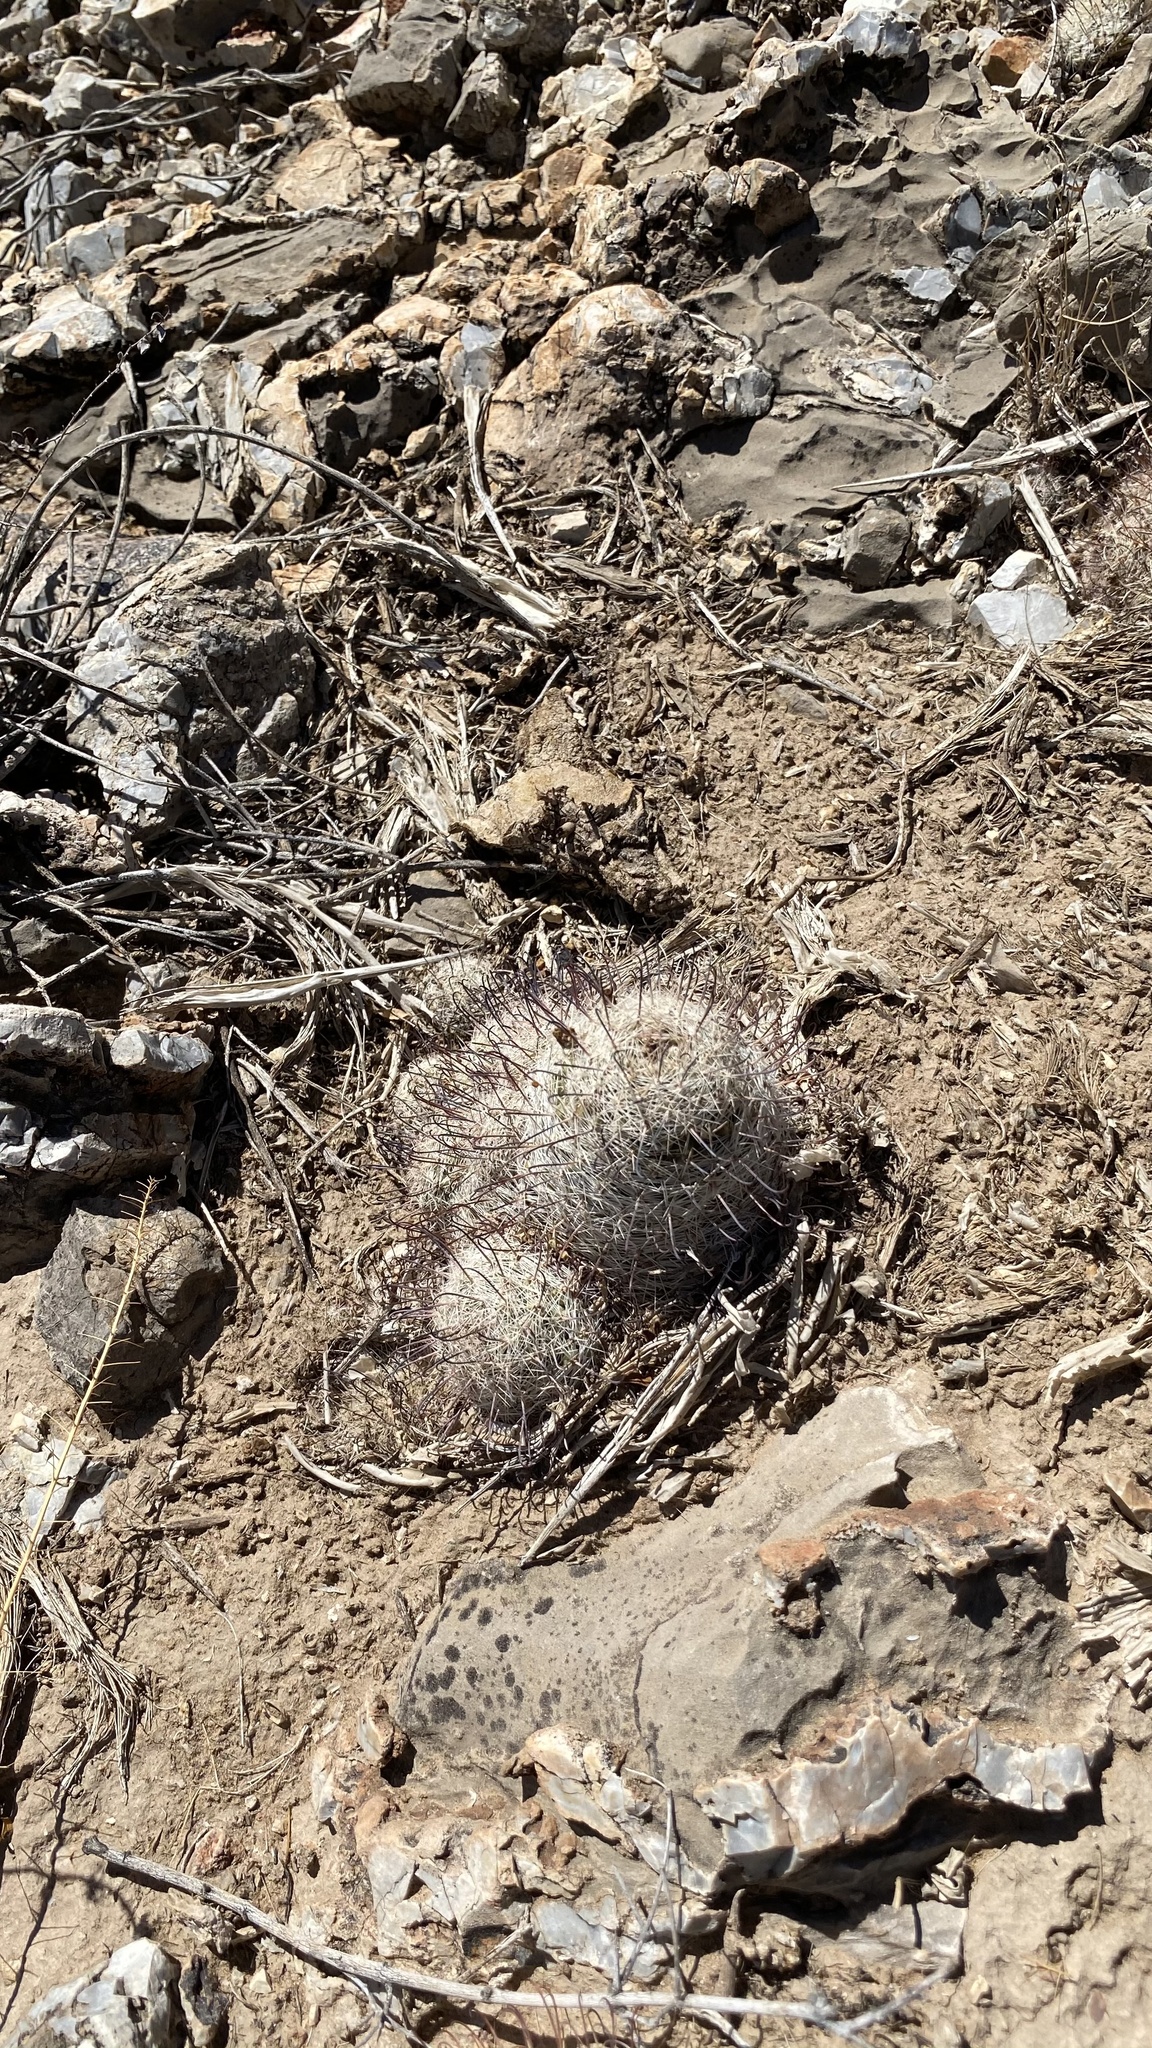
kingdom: Plantae
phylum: Tracheophyta
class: Magnoliopsida
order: Caryophyllales
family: Cactaceae
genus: Cochemiea
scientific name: Cochemiea grahamii
